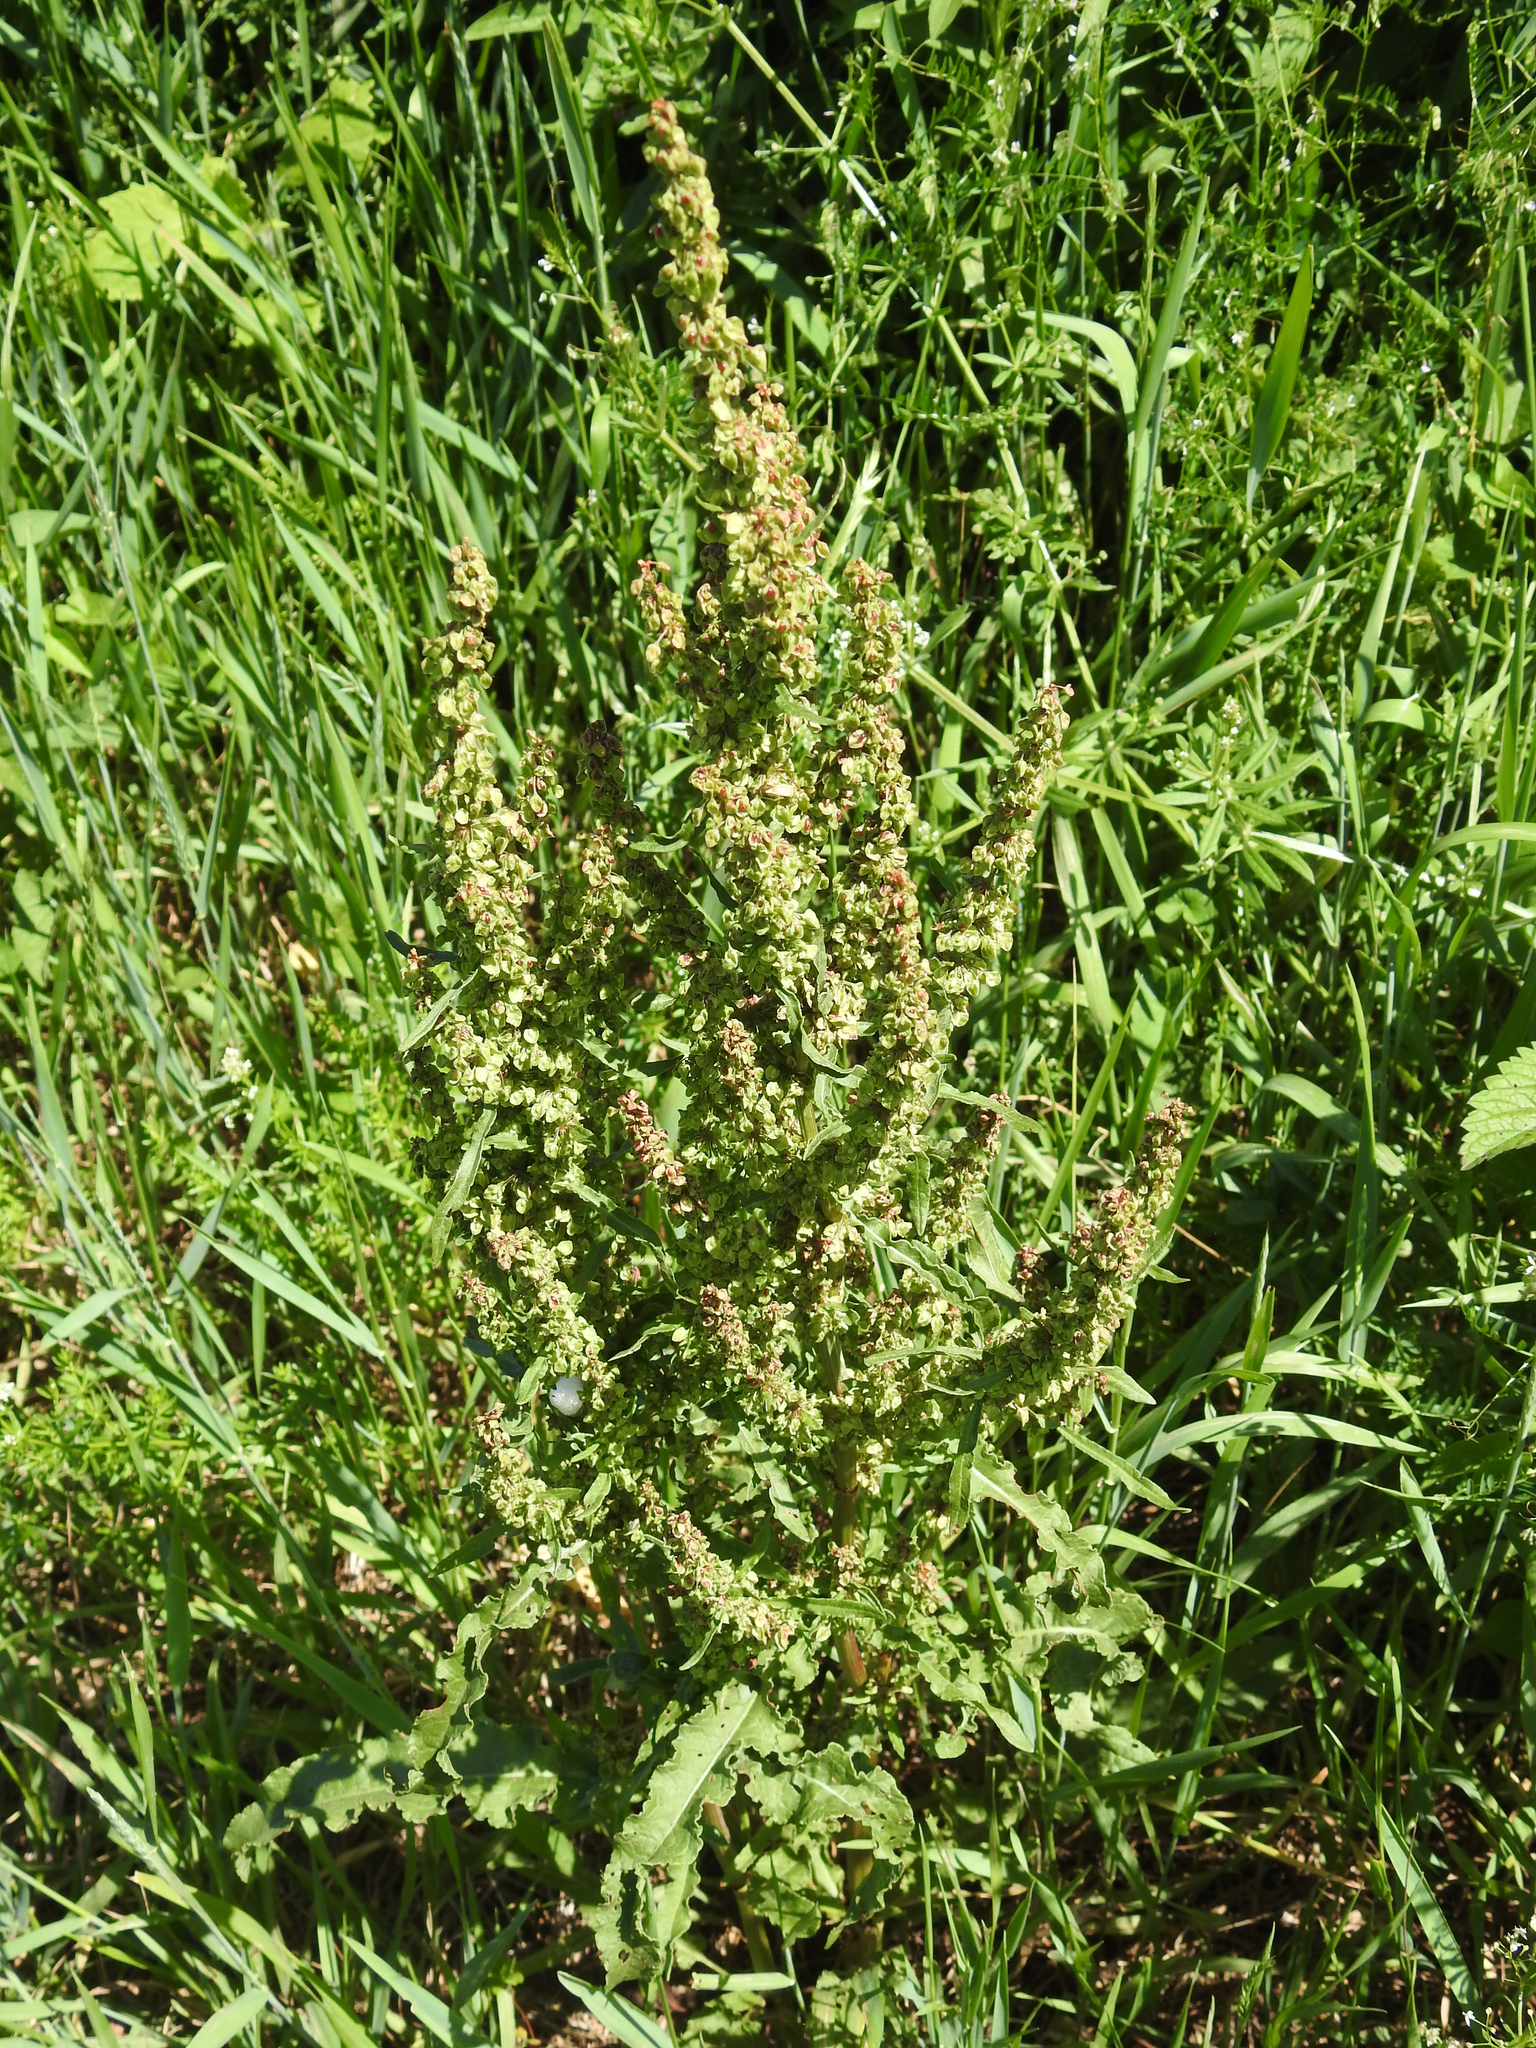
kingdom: Plantae
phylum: Tracheophyta
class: Magnoliopsida
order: Caryophyllales
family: Polygonaceae
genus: Rumex
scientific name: Rumex crispus
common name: Curled dock
